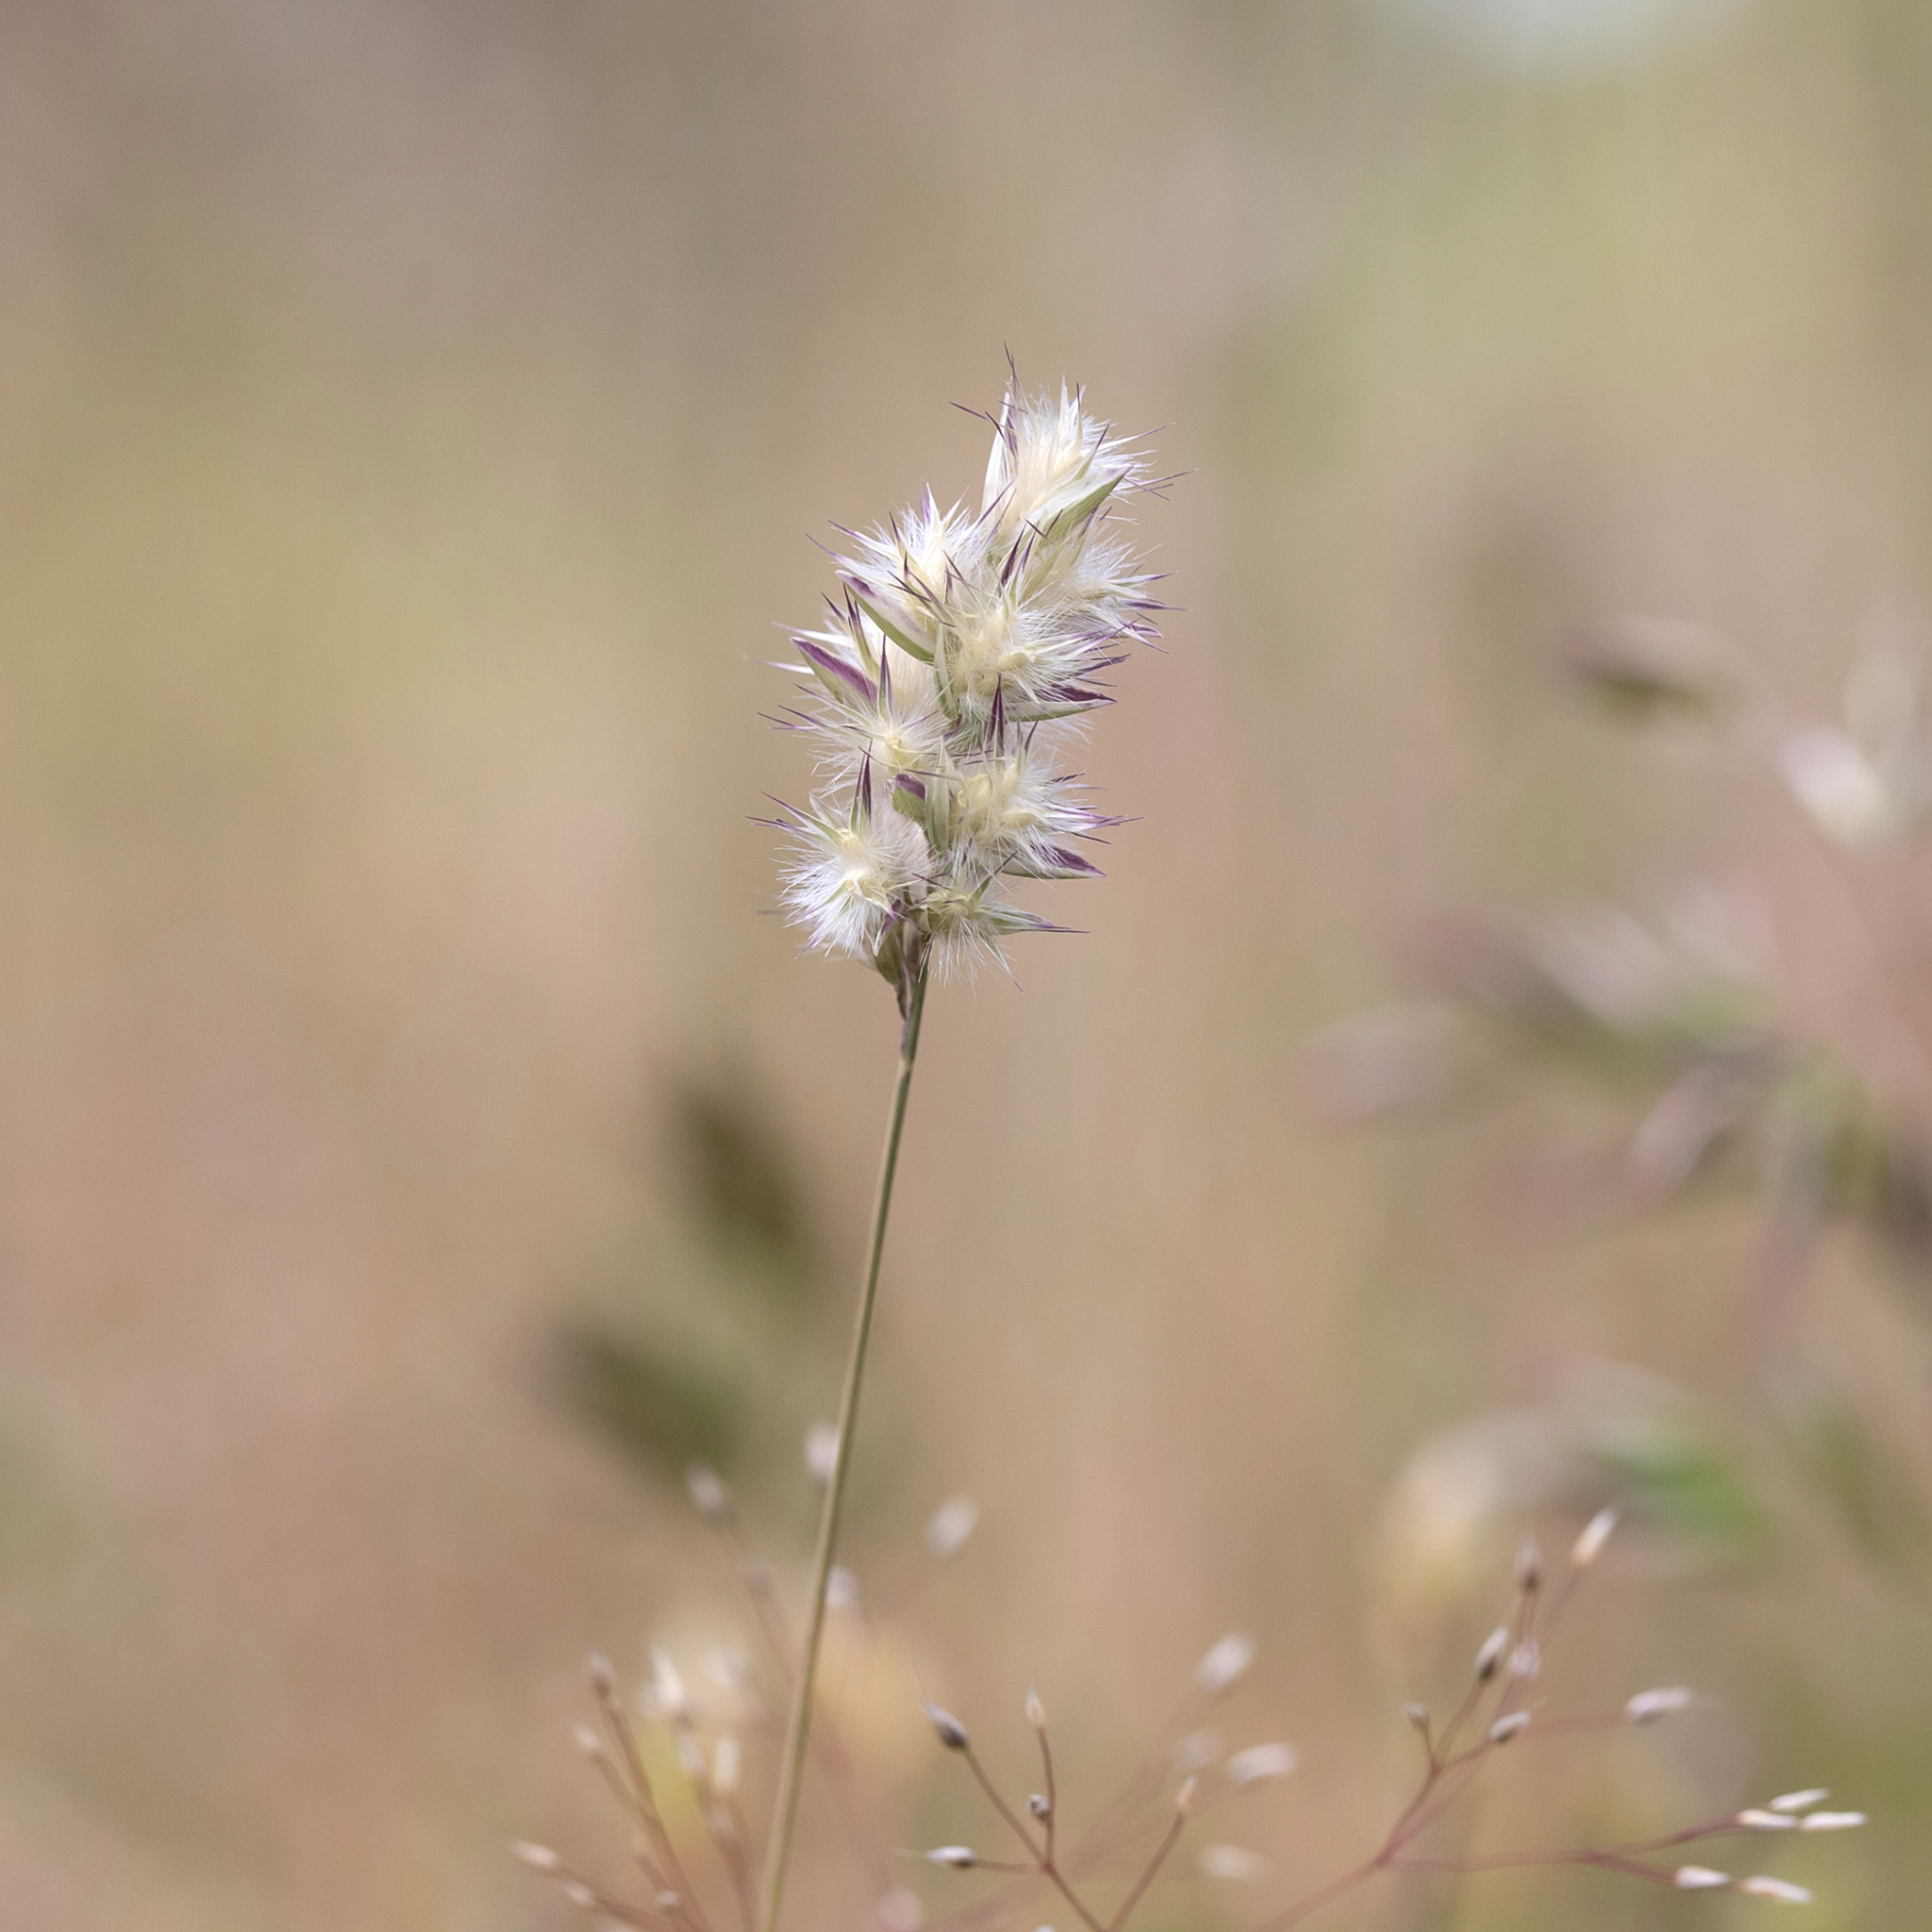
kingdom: Plantae
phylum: Tracheophyta
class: Liliopsida
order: Poales
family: Poaceae
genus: Rytidosperma
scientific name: Rytidosperma geniculatum
